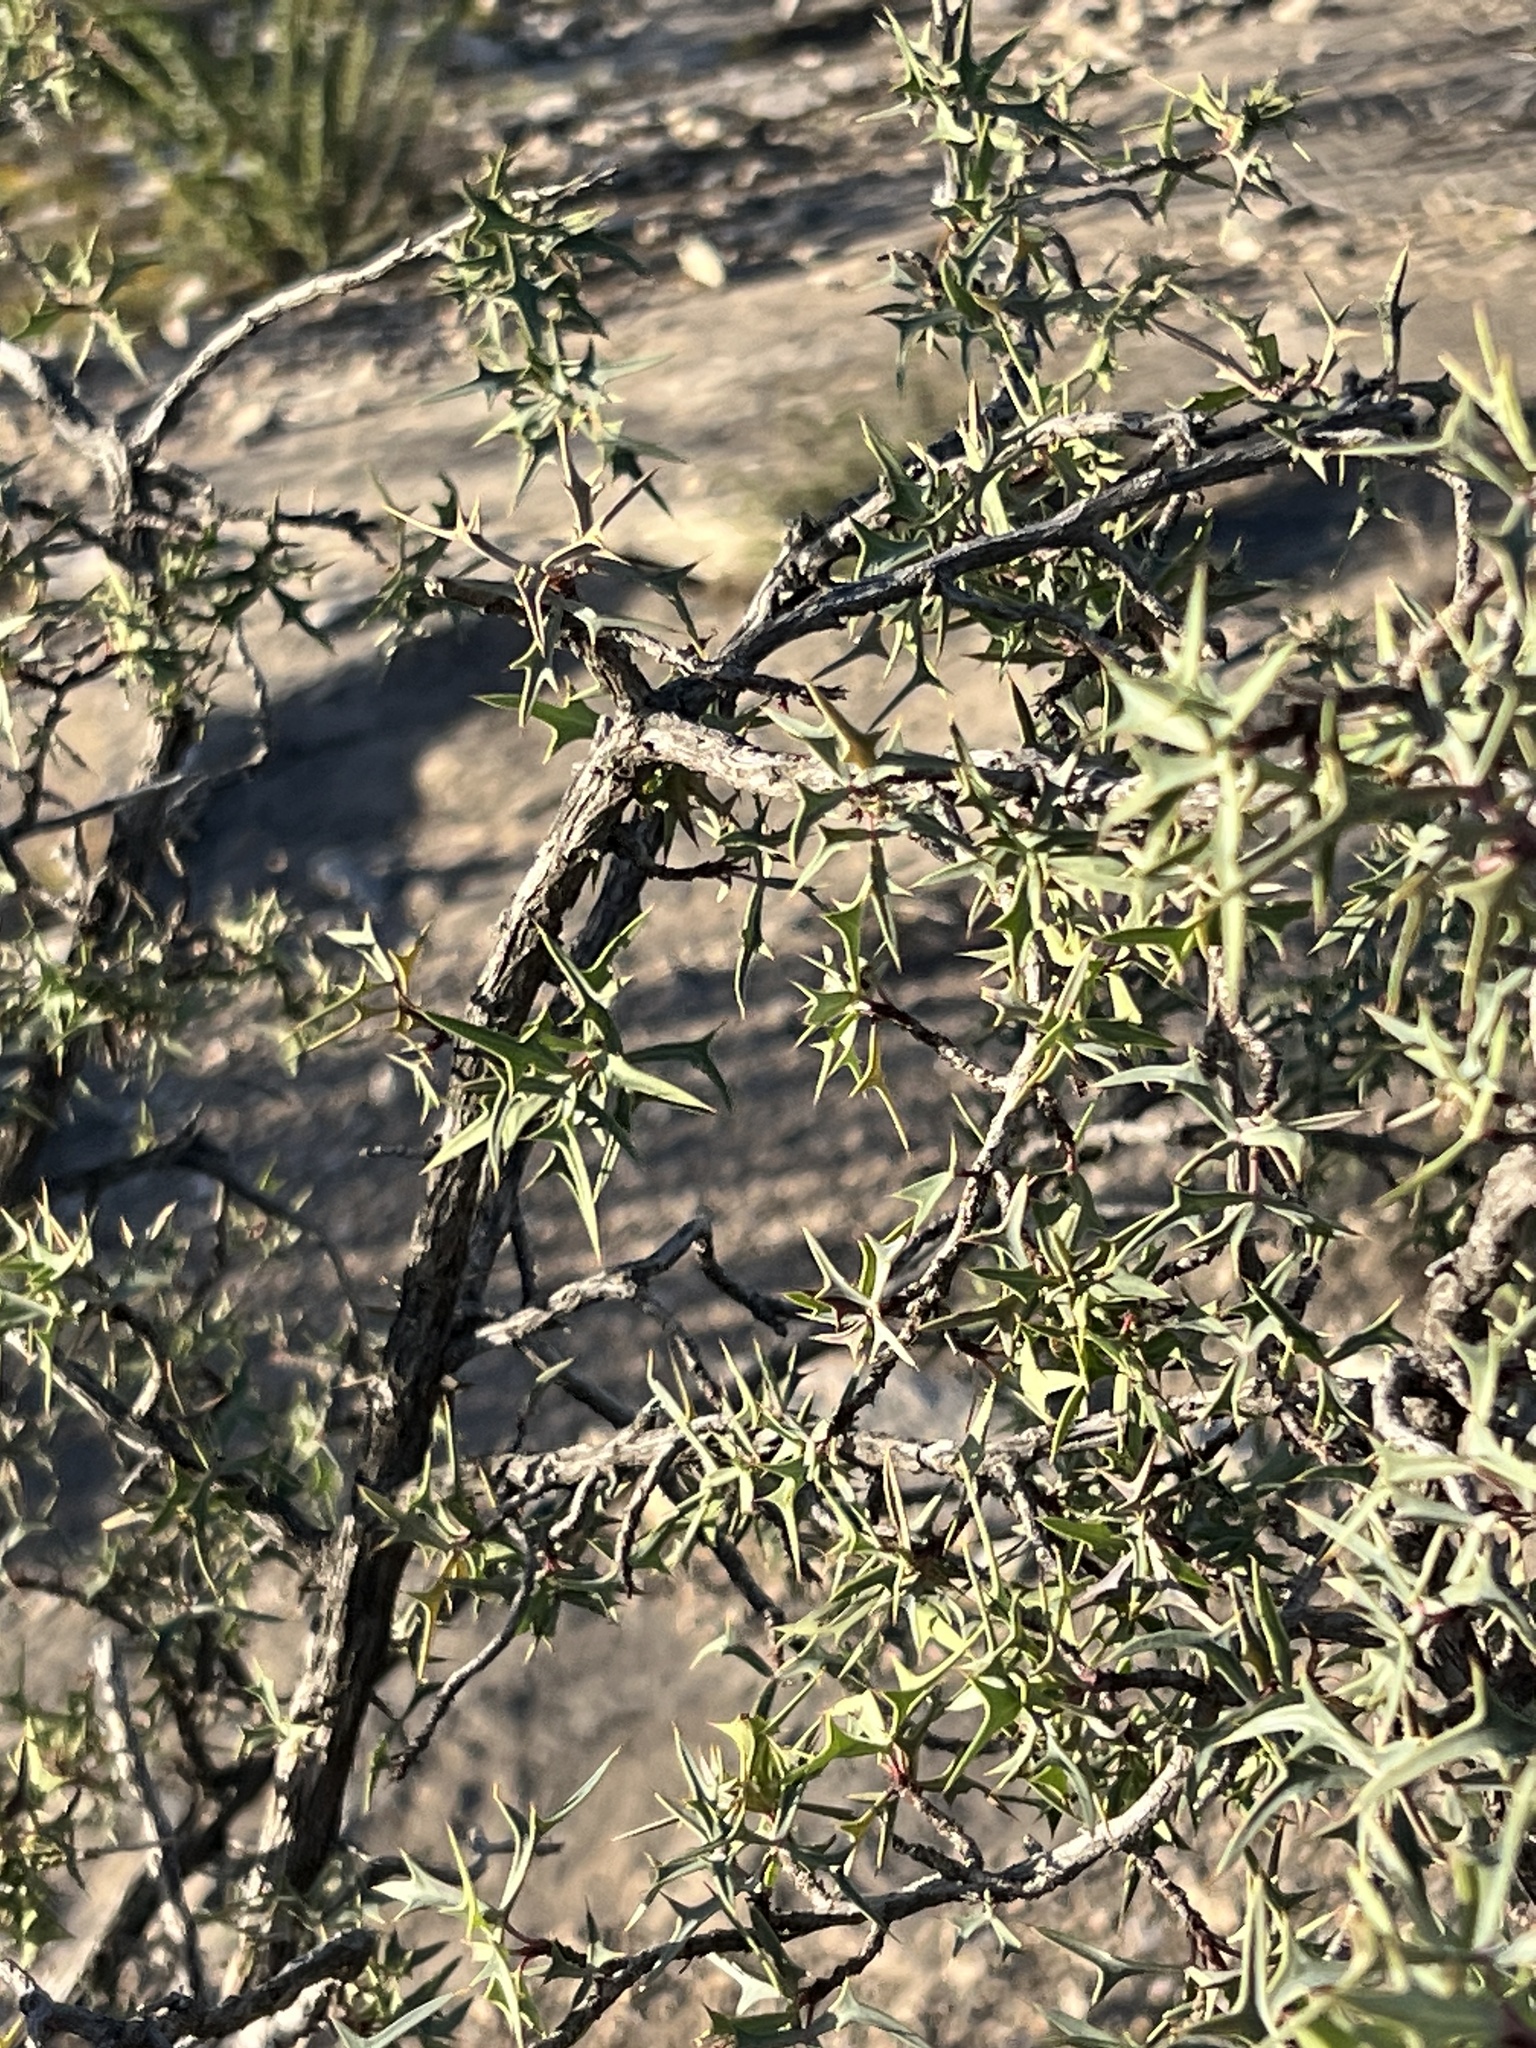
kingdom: Plantae
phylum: Tracheophyta
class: Magnoliopsida
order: Ranunculales
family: Berberidaceae
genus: Alloberberis
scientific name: Alloberberis trifoliolata
